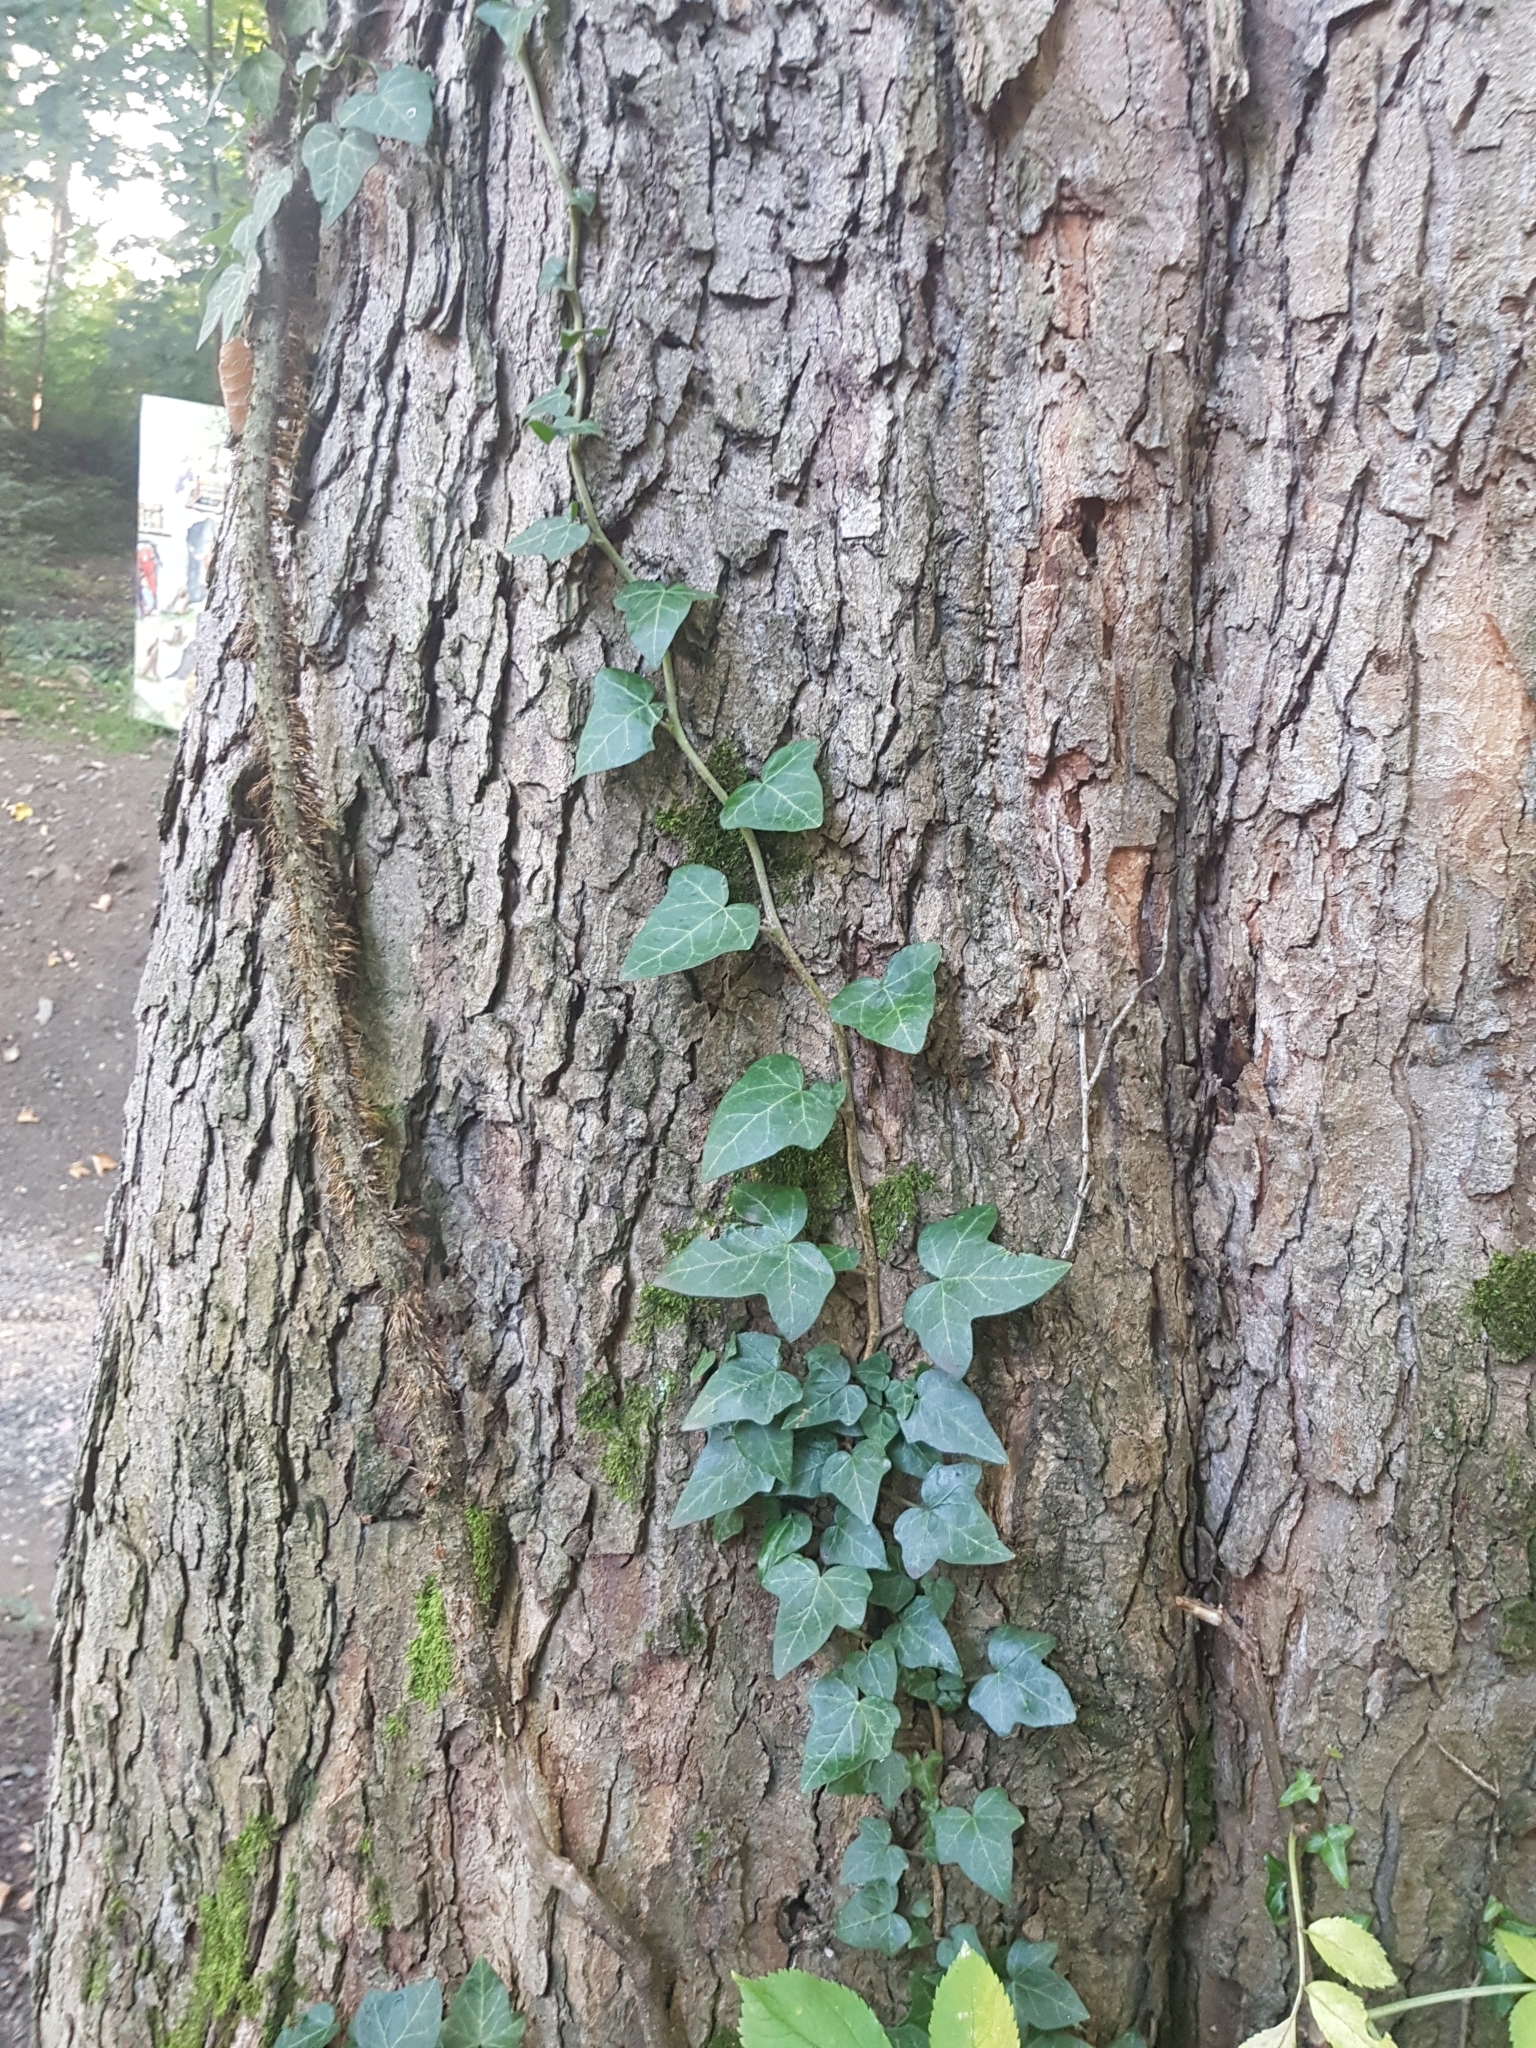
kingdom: Plantae
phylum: Tracheophyta
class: Magnoliopsida
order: Apiales
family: Araliaceae
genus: Hedera
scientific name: Hedera helix
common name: Ivy
